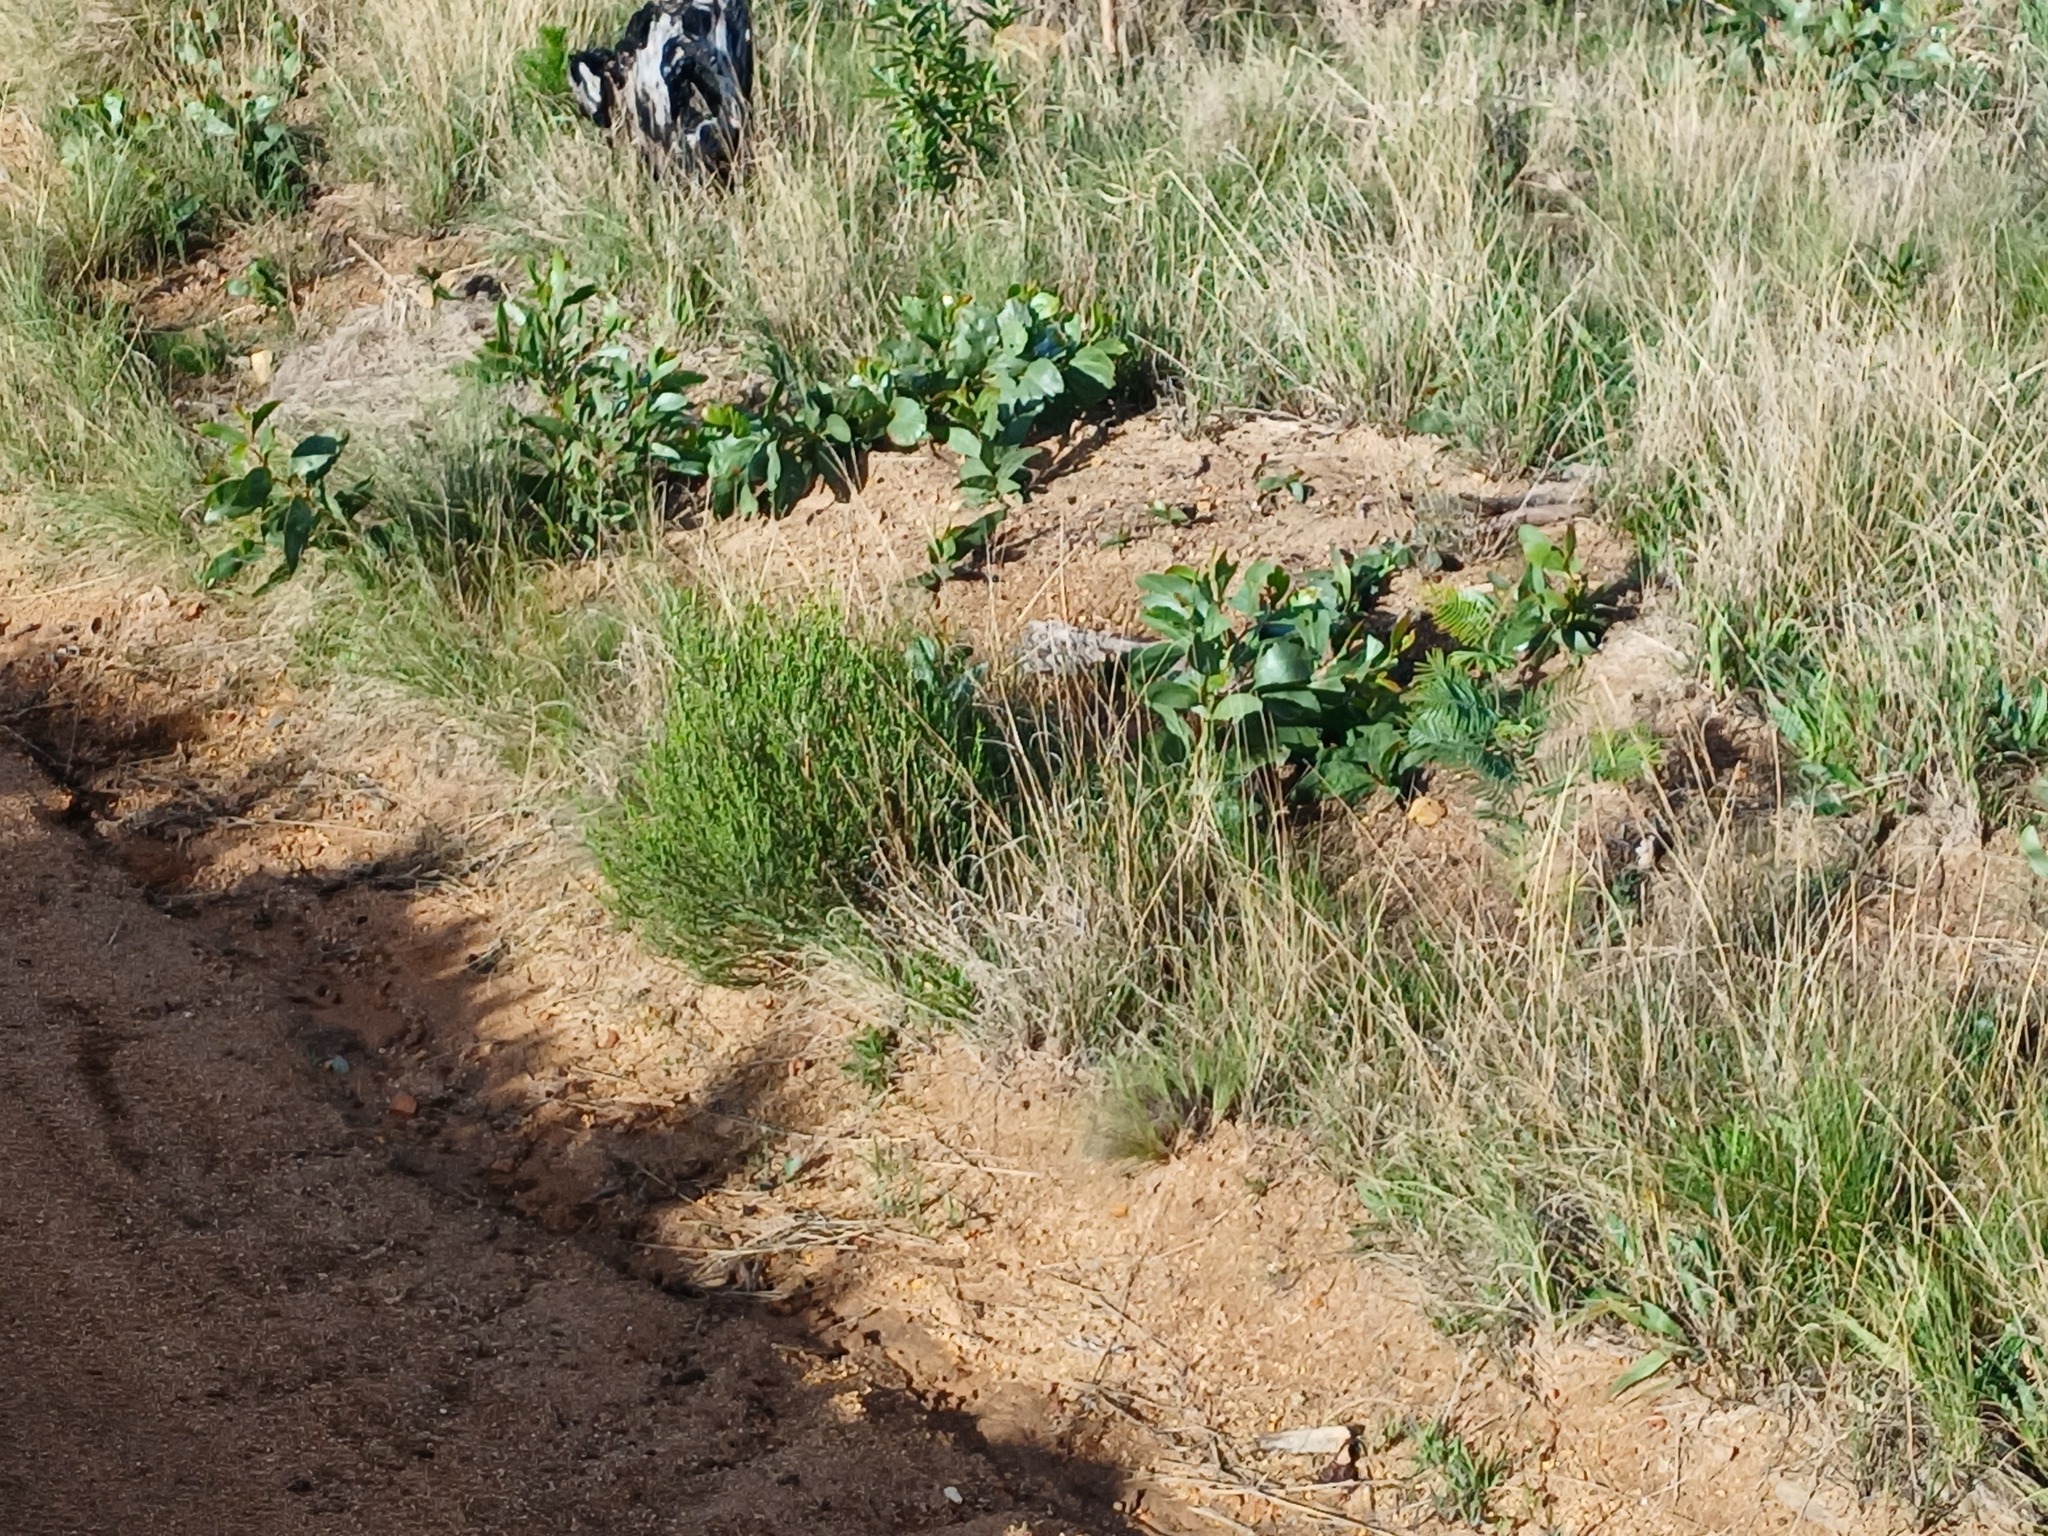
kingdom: Plantae
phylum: Tracheophyta
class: Magnoliopsida
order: Fabales
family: Fabaceae
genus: Acacia
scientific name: Acacia pycnantha
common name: Golden wattle
